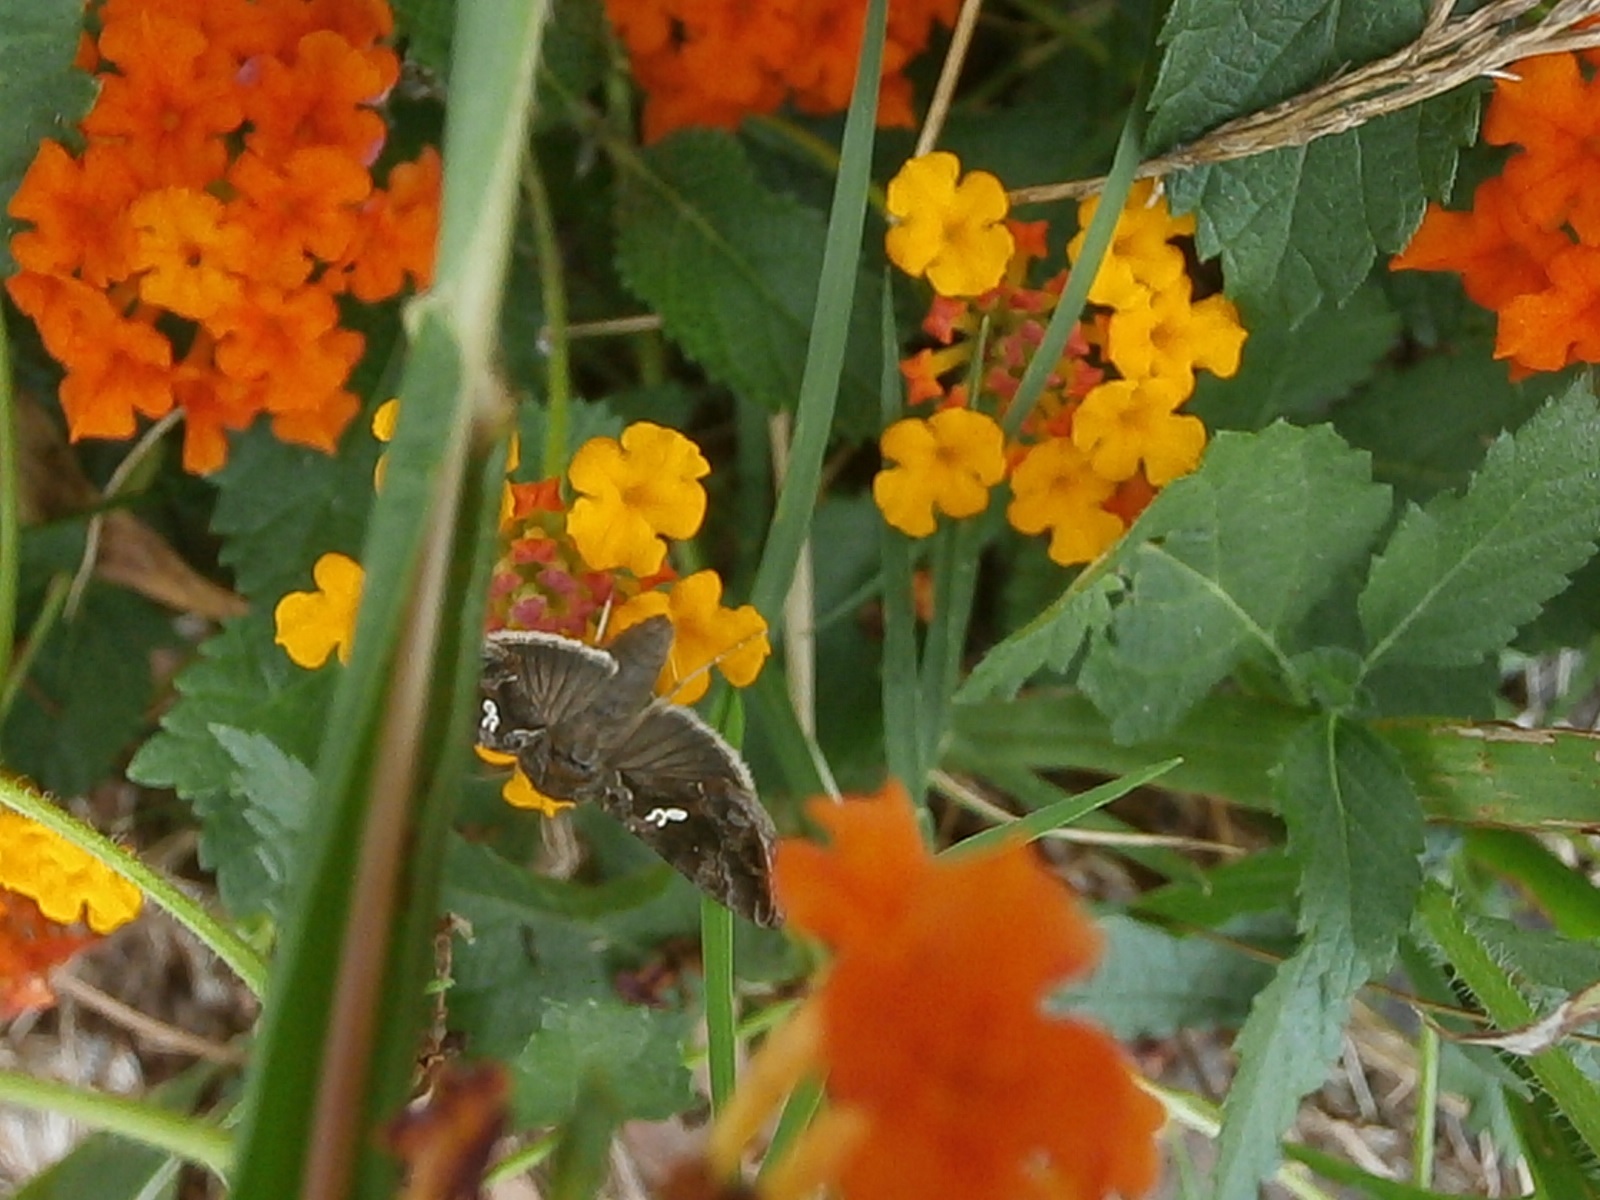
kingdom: Animalia
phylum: Arthropoda
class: Insecta
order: Lepidoptera
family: Noctuidae
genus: Rachiplusia
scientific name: Rachiplusia ou
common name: Gray looper moth
